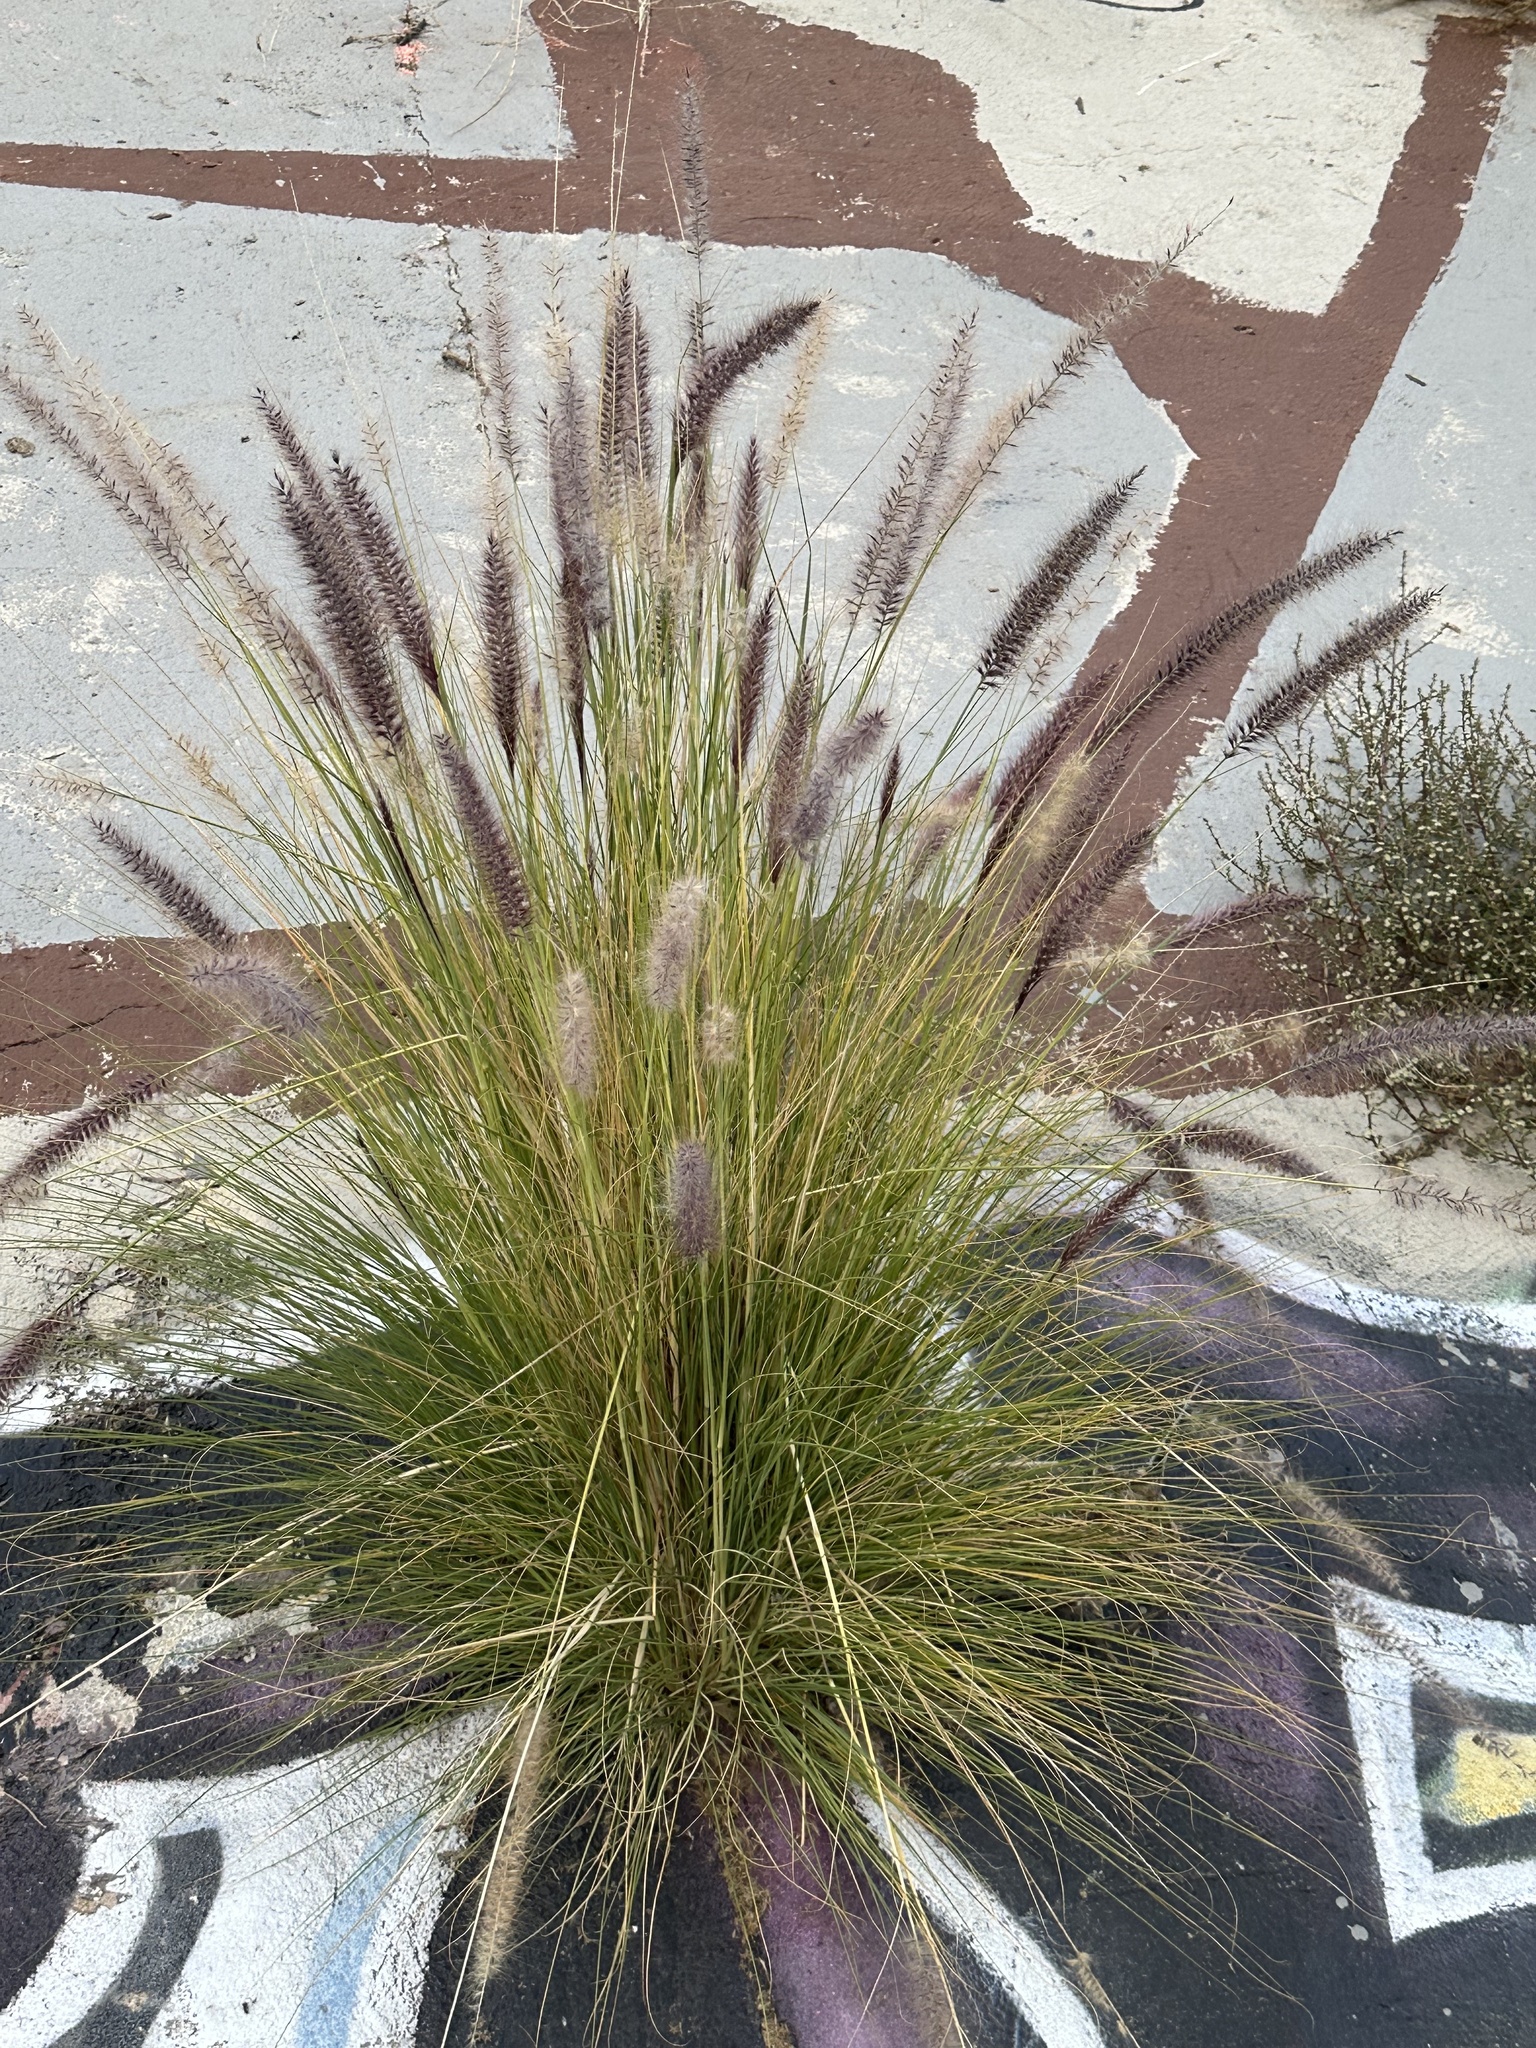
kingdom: Plantae
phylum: Tracheophyta
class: Liliopsida
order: Poales
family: Poaceae
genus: Cenchrus
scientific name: Cenchrus setaceus
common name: Crimson fountaingrass
